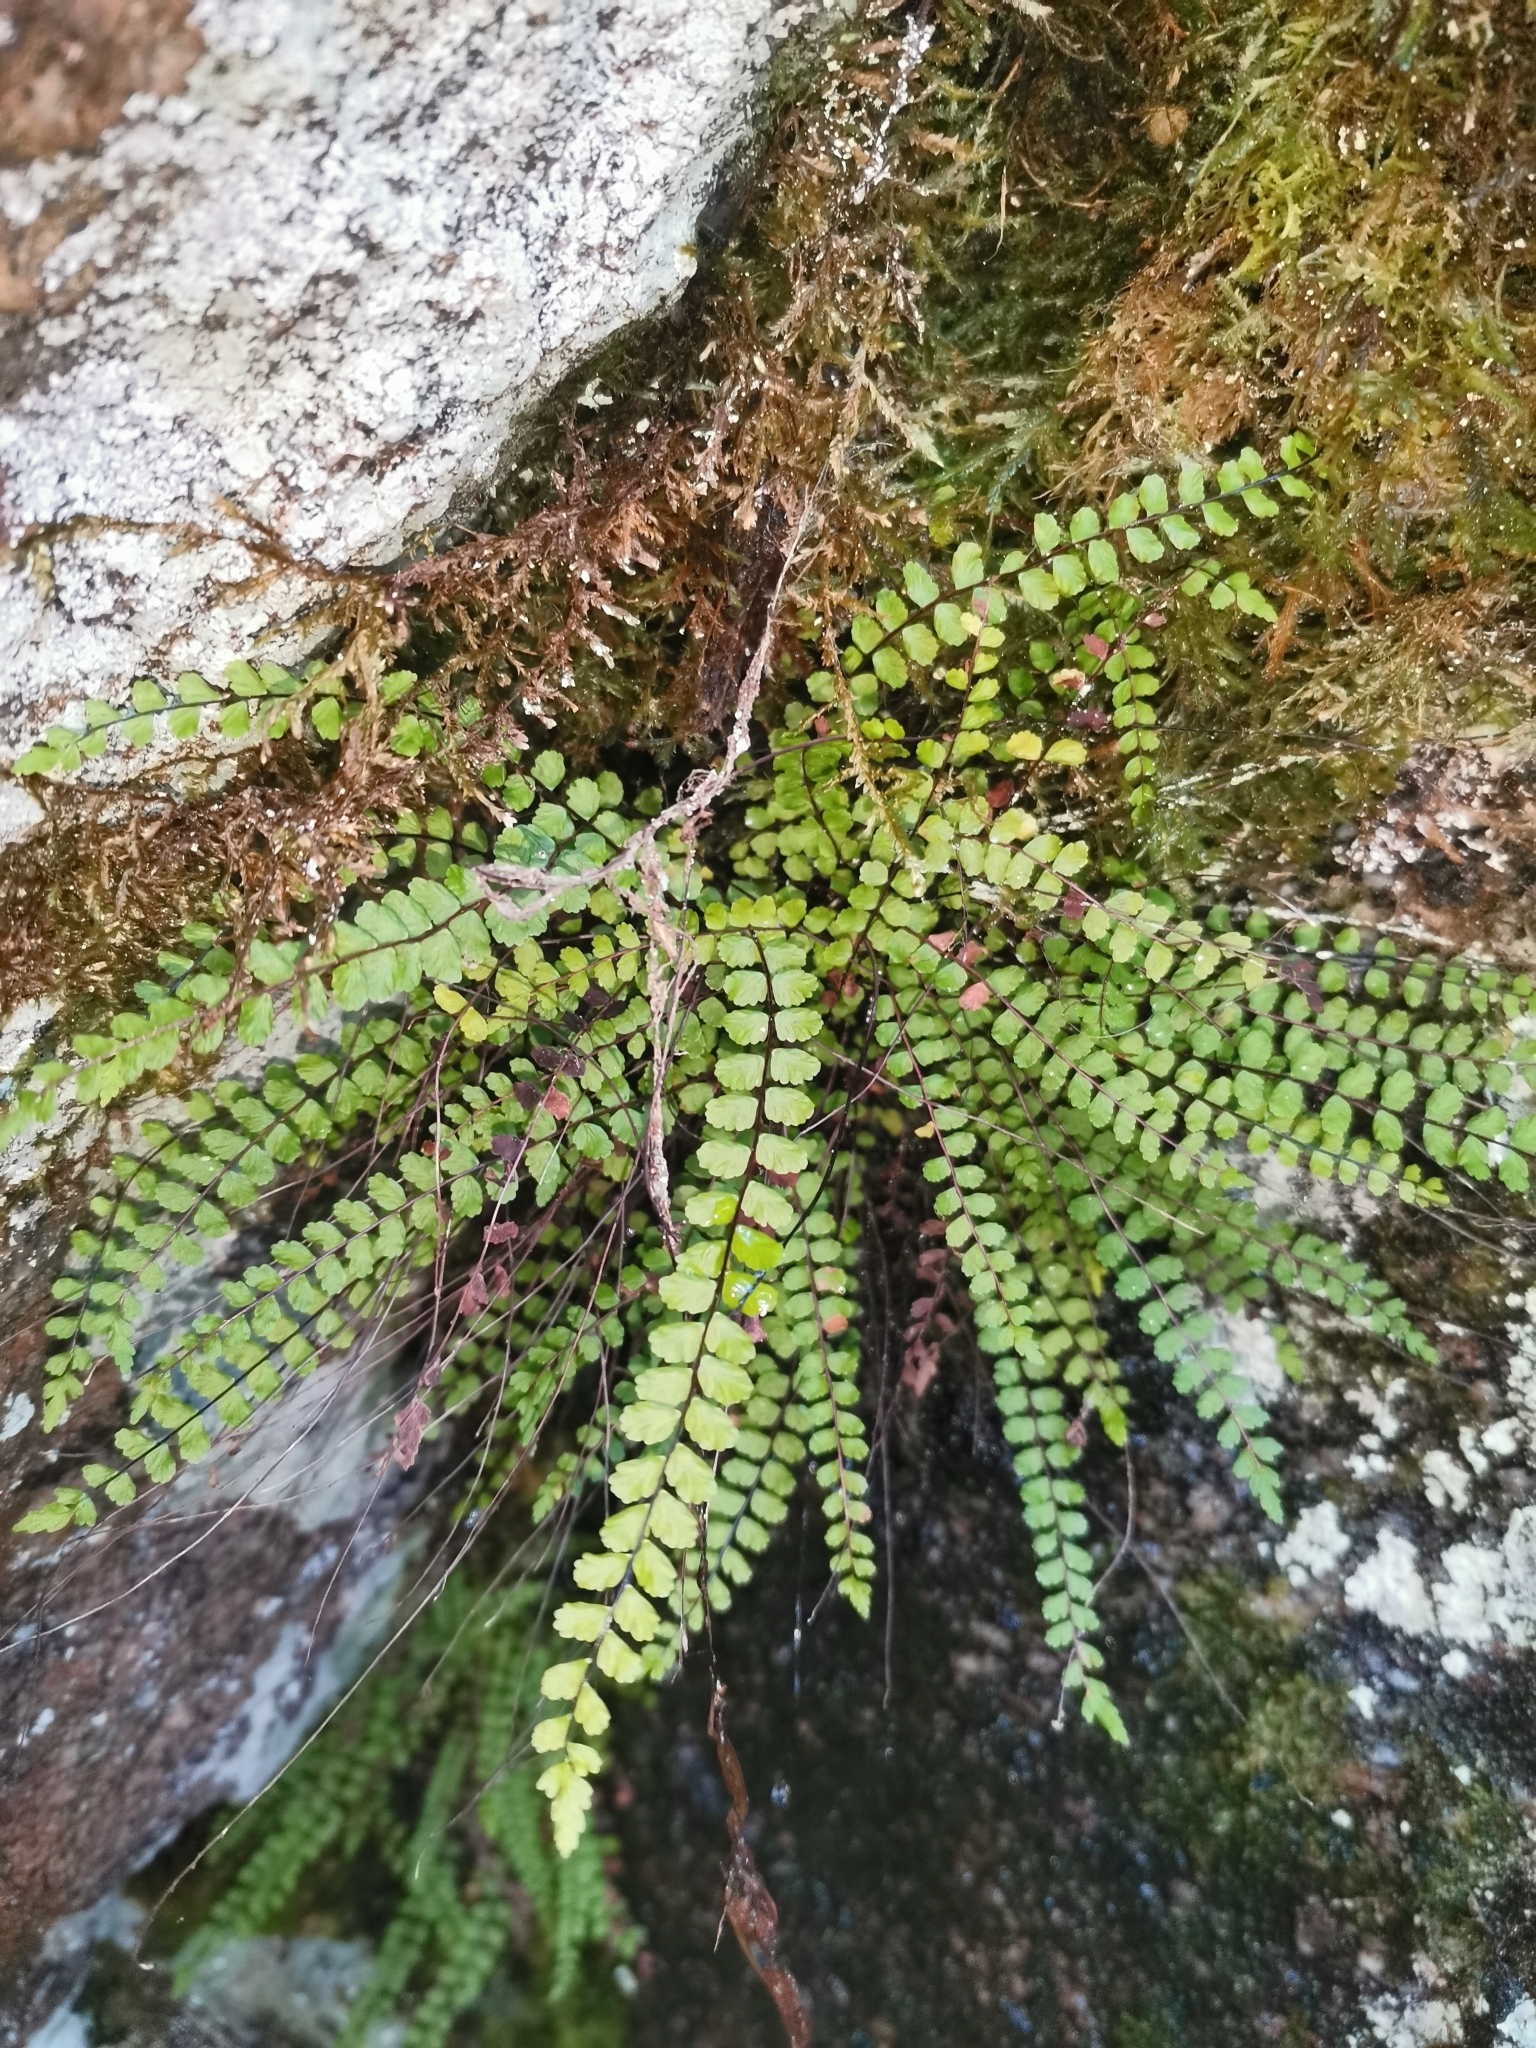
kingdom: Plantae
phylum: Tracheophyta
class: Polypodiopsida
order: Polypodiales
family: Aspleniaceae
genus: Asplenium
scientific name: Asplenium trichomanes
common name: Maidenhair spleenwort
